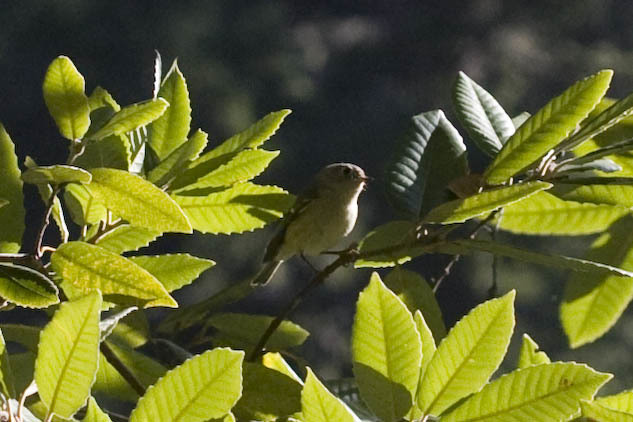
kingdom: Animalia
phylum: Chordata
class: Aves
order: Passeriformes
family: Regulidae
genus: Regulus
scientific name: Regulus calendula
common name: Ruby-crowned kinglet
